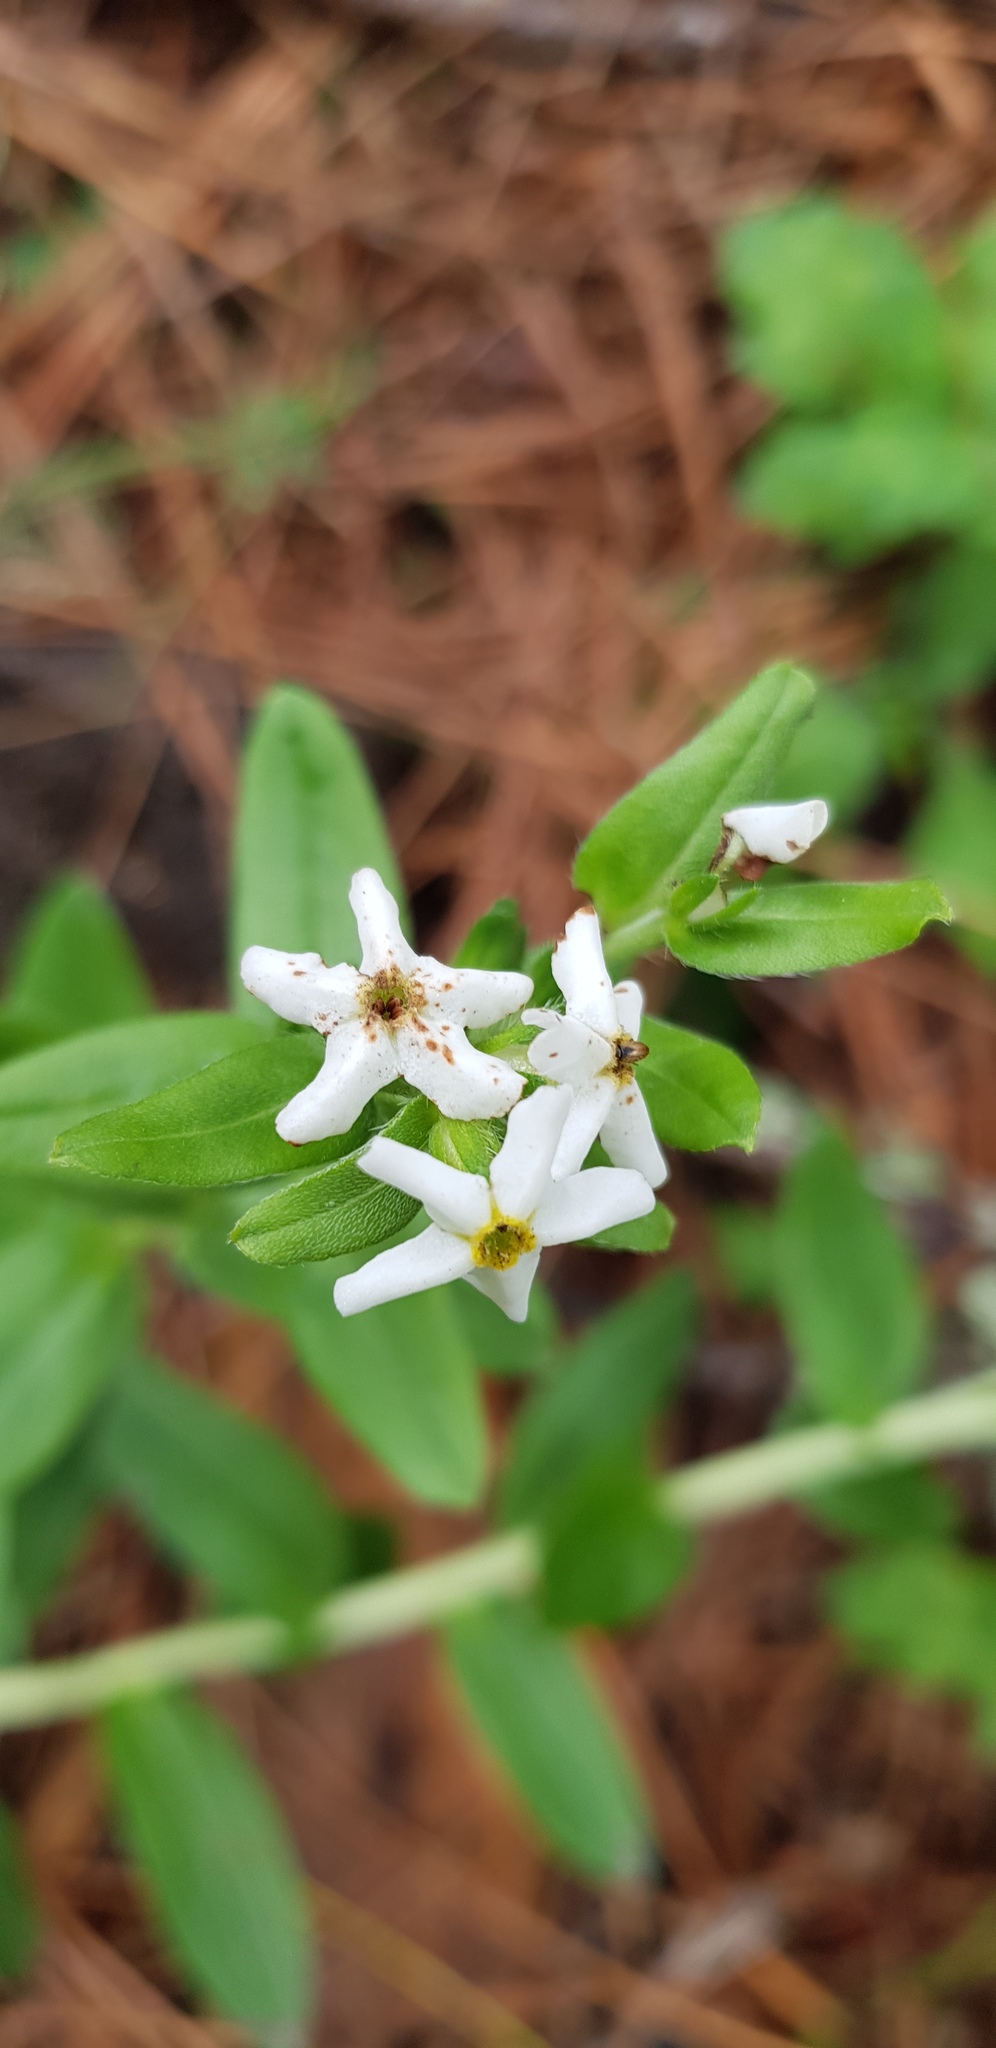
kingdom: Plantae
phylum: Tracheophyta
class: Magnoliopsida
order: Boraginales
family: Boraginaceae
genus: Lithospermum
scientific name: Lithospermum distichum
